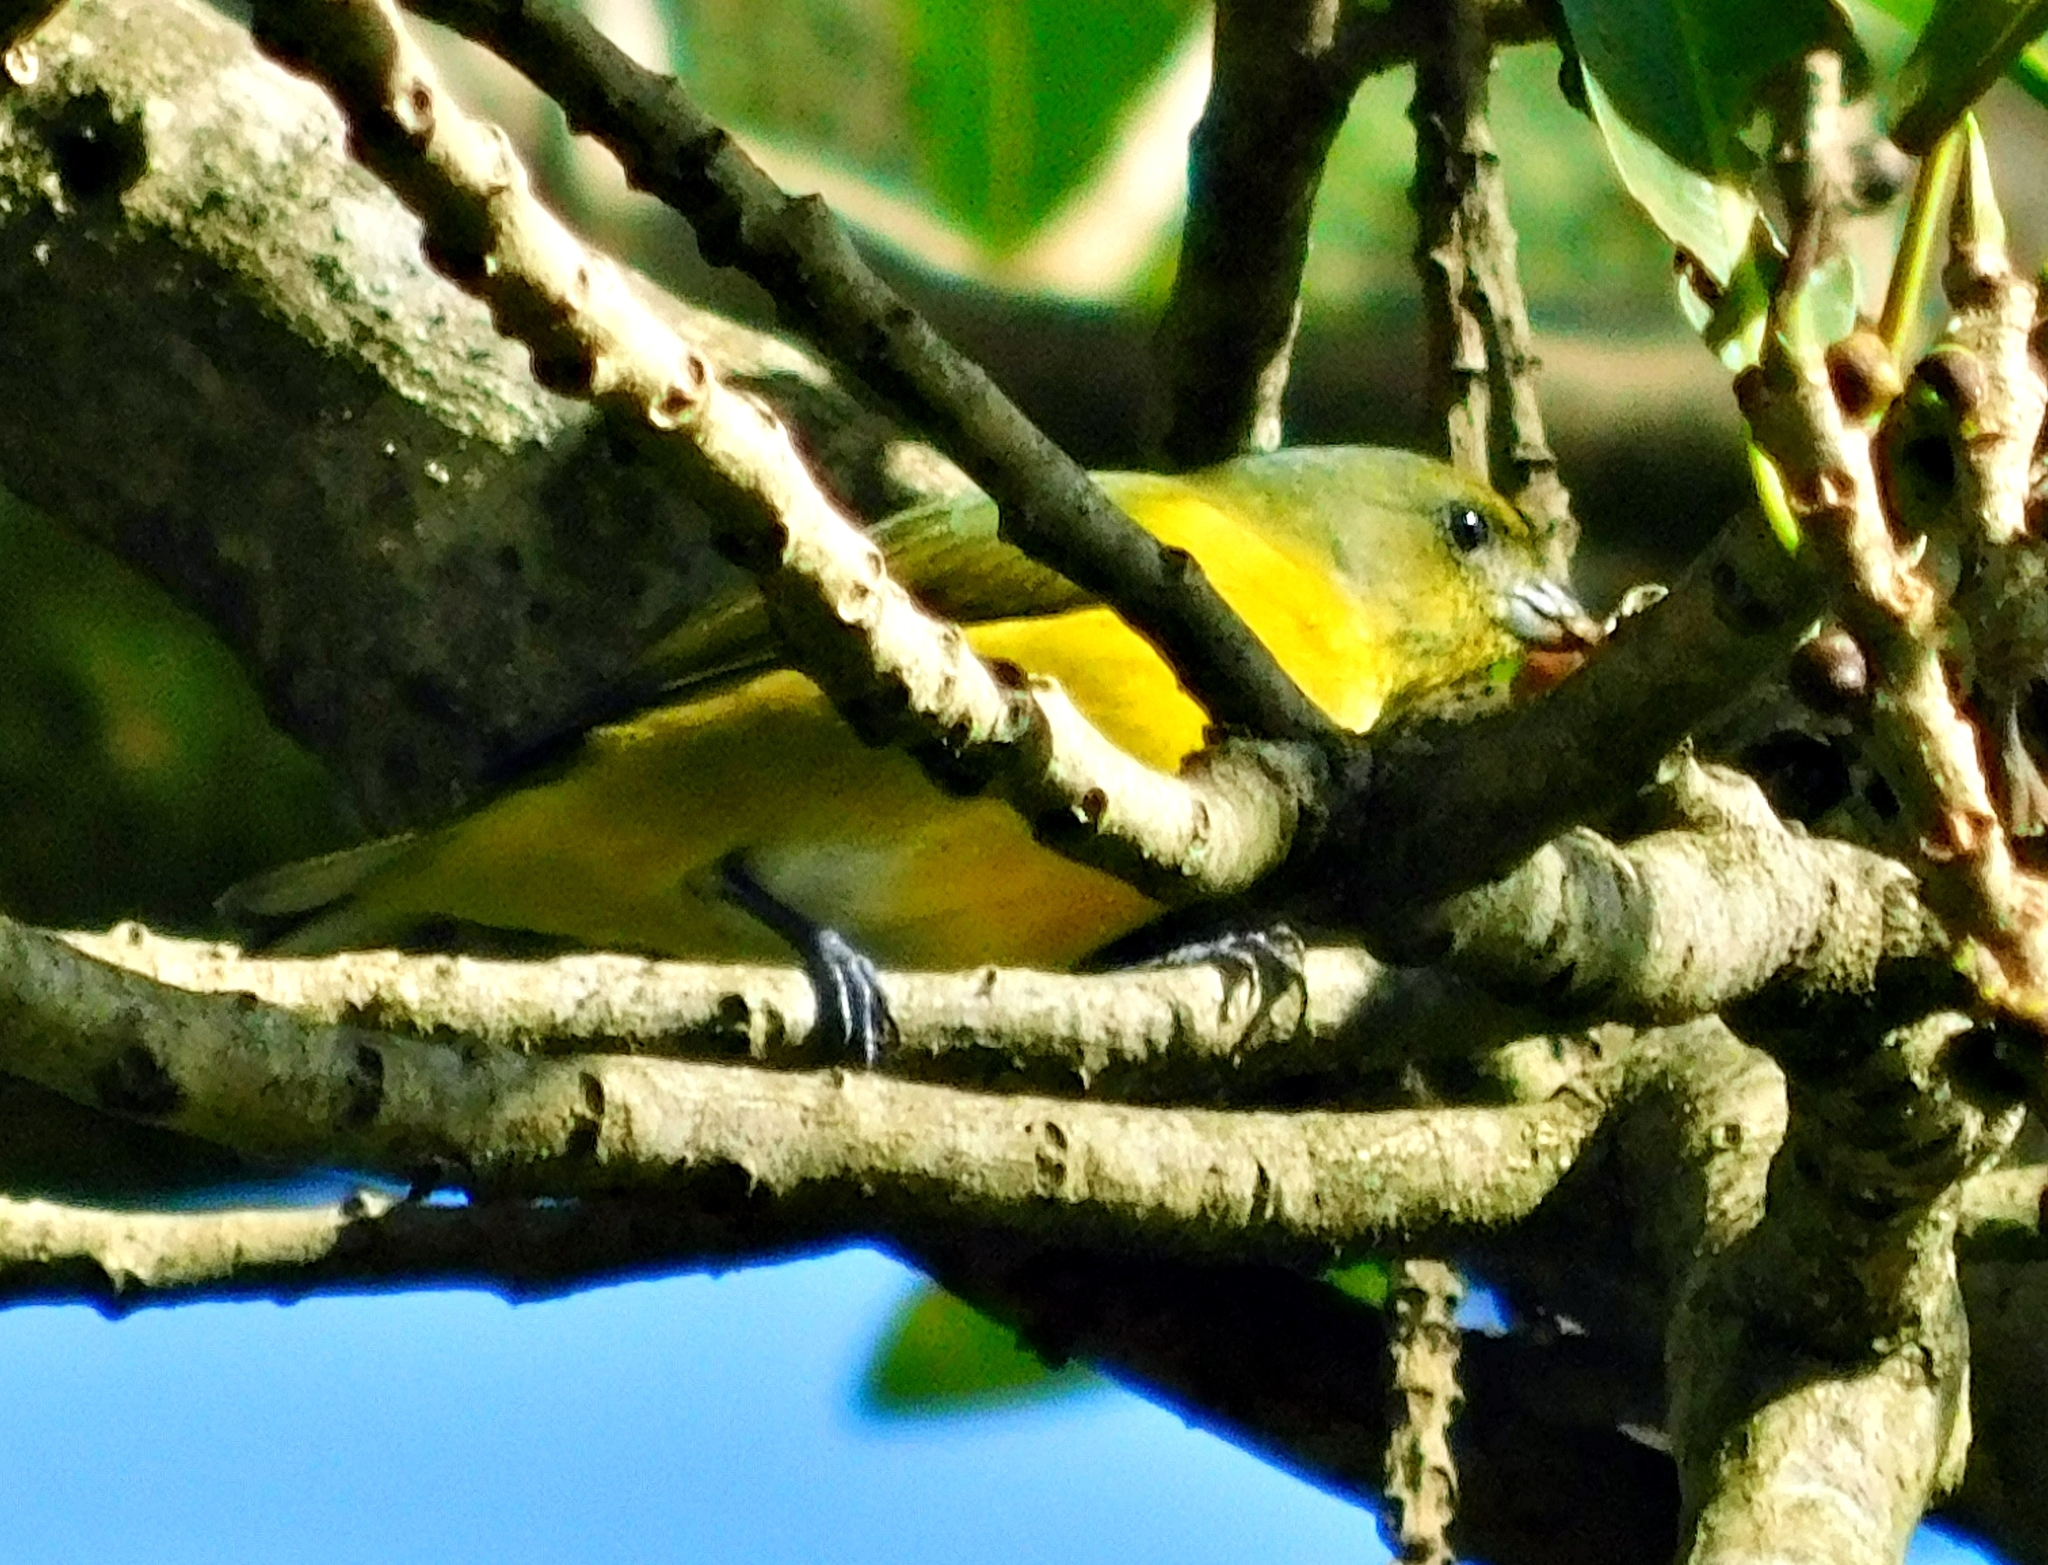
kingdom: Animalia
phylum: Chordata
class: Aves
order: Passeriformes
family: Fringillidae
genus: Euphonia
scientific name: Euphonia hirundinacea
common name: Yellow-throated euphonia
